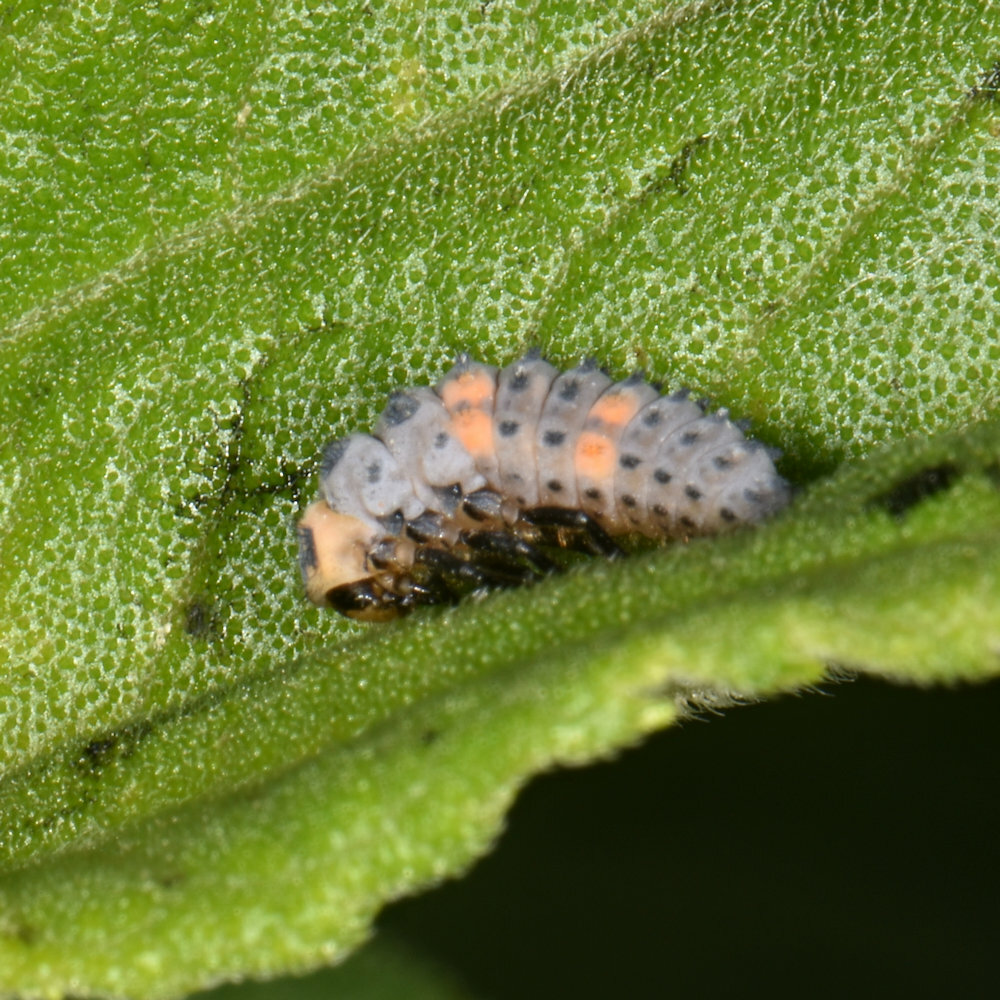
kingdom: Animalia
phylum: Arthropoda
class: Insecta
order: Coleoptera
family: Coccinellidae
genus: Coccinella
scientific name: Coccinella septempunctata
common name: Sevenspotted lady beetle
